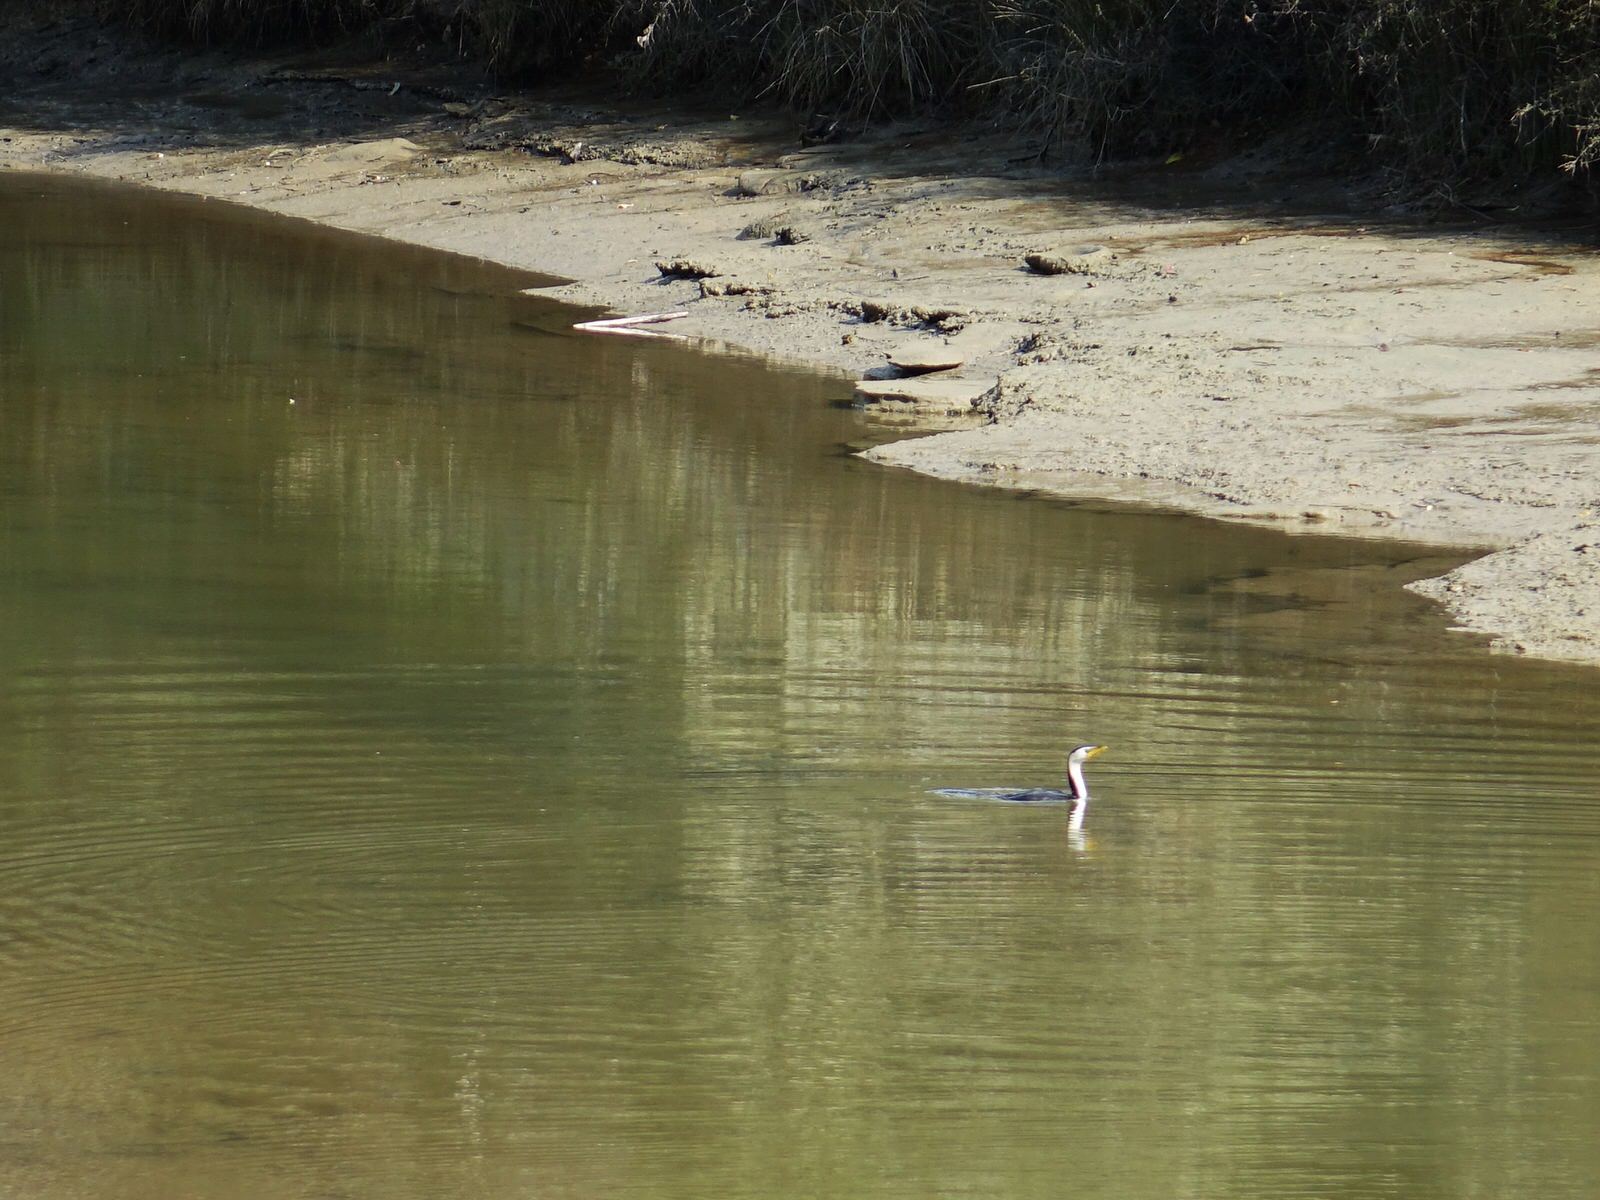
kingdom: Animalia
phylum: Chordata
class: Aves
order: Suliformes
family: Phalacrocoracidae
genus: Microcarbo
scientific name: Microcarbo melanoleucos
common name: Little pied cormorant
